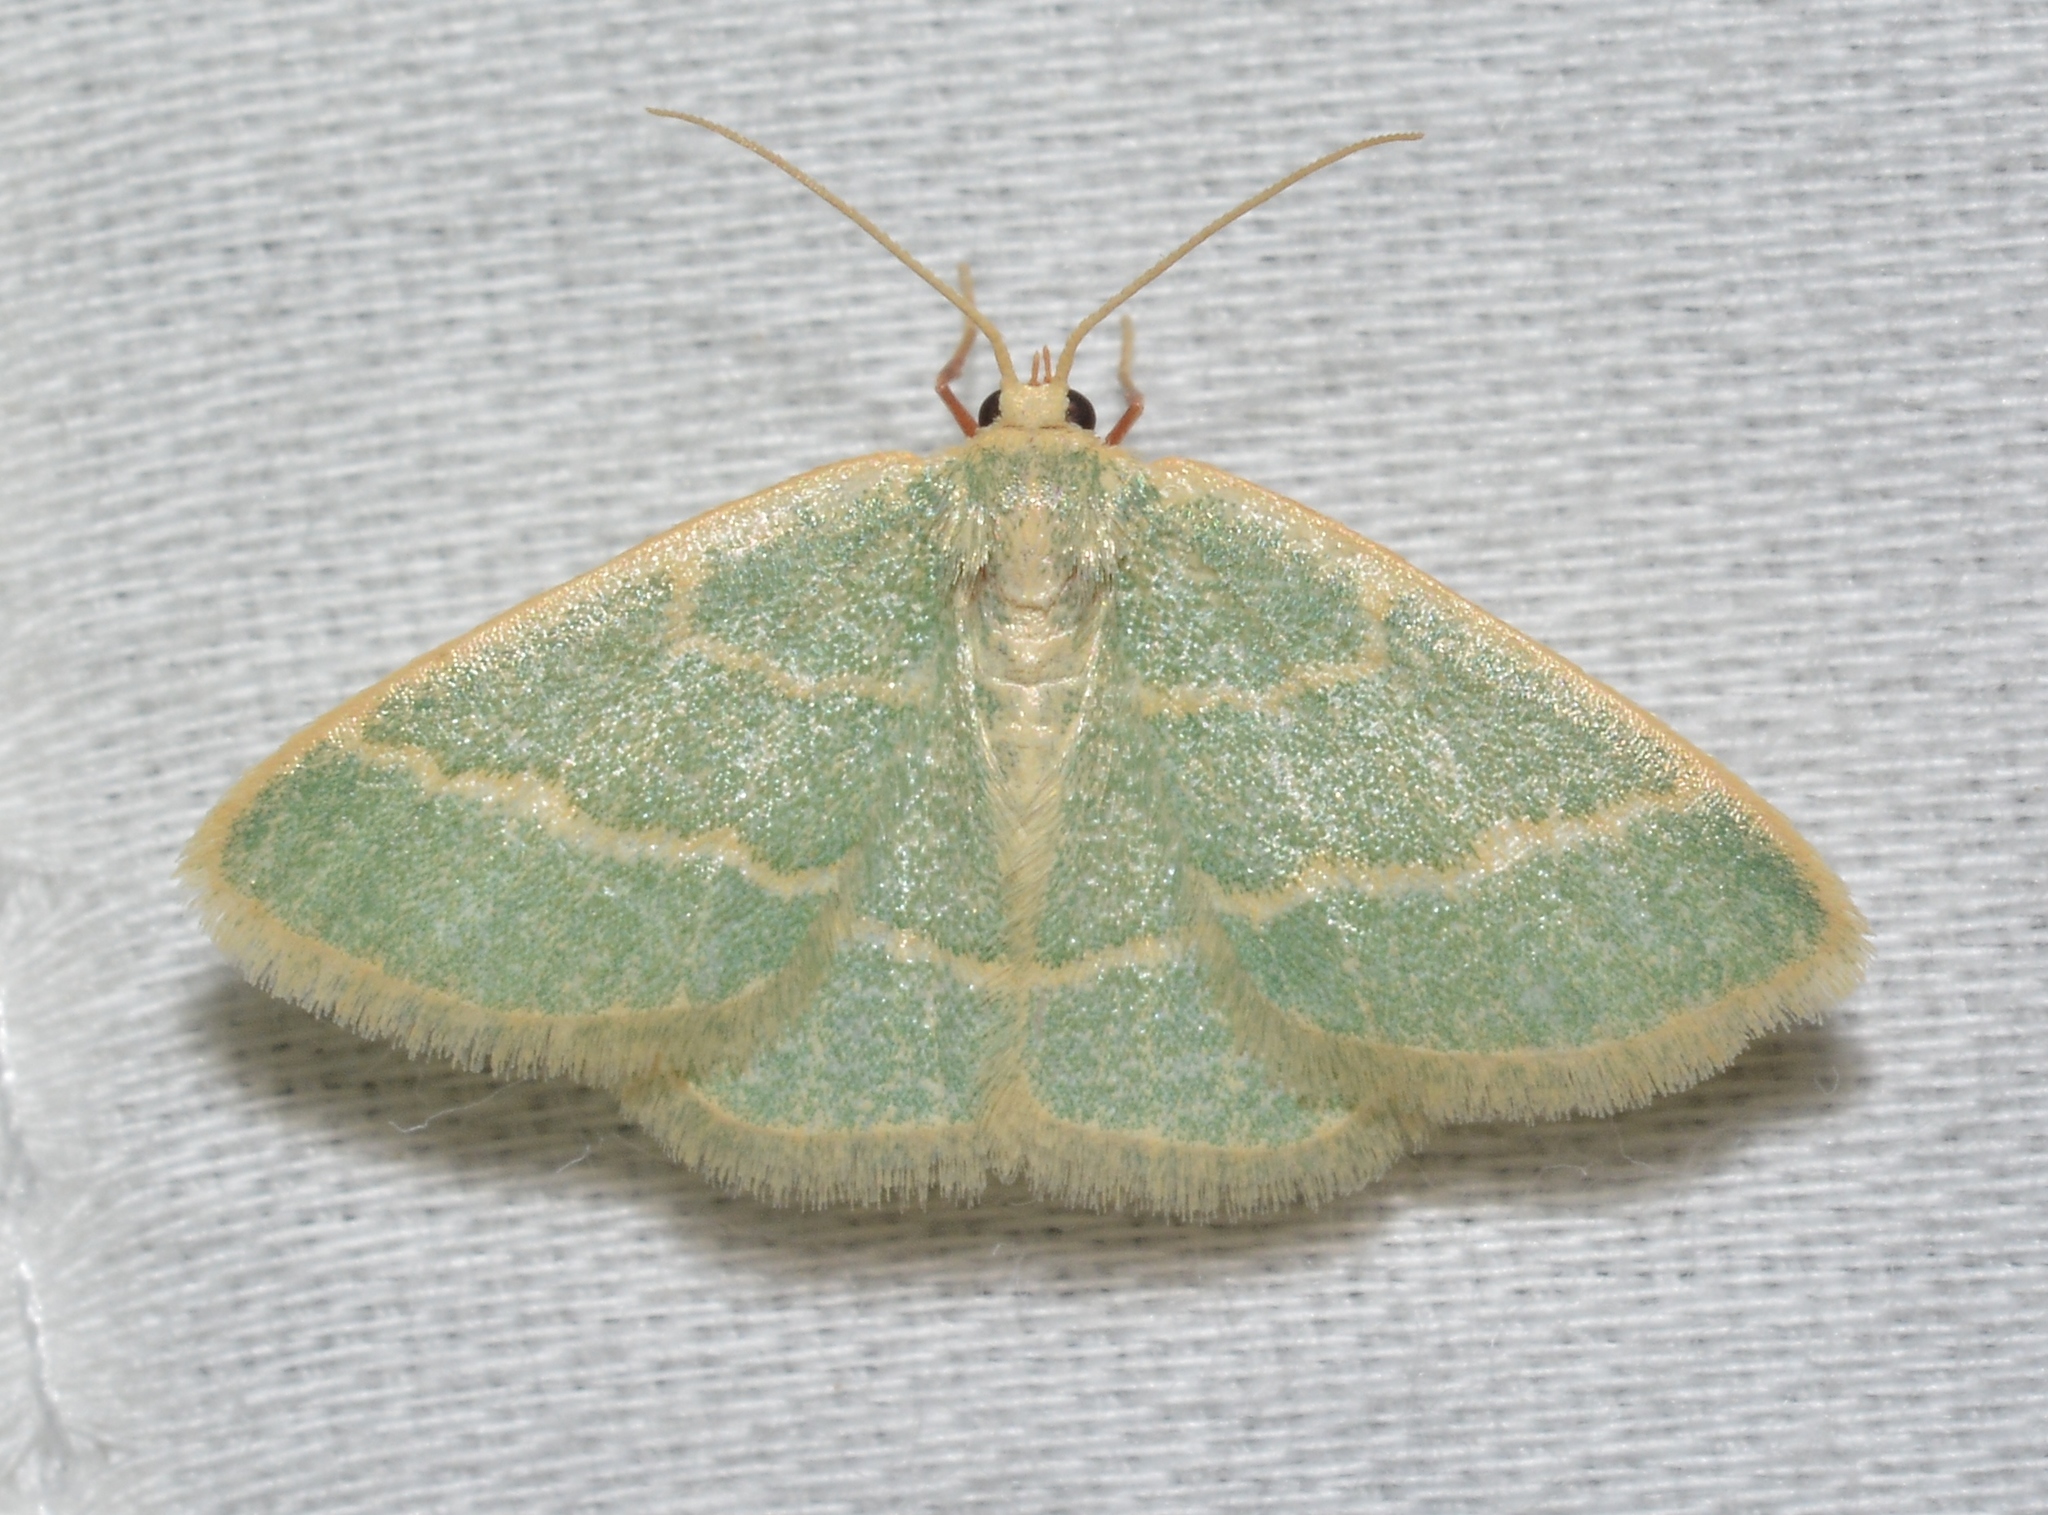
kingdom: Animalia
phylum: Arthropoda
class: Insecta
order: Lepidoptera
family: Geometridae
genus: Chlorochlamys
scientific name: Chlorochlamys chloroleucaria
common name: Blackberry looper
